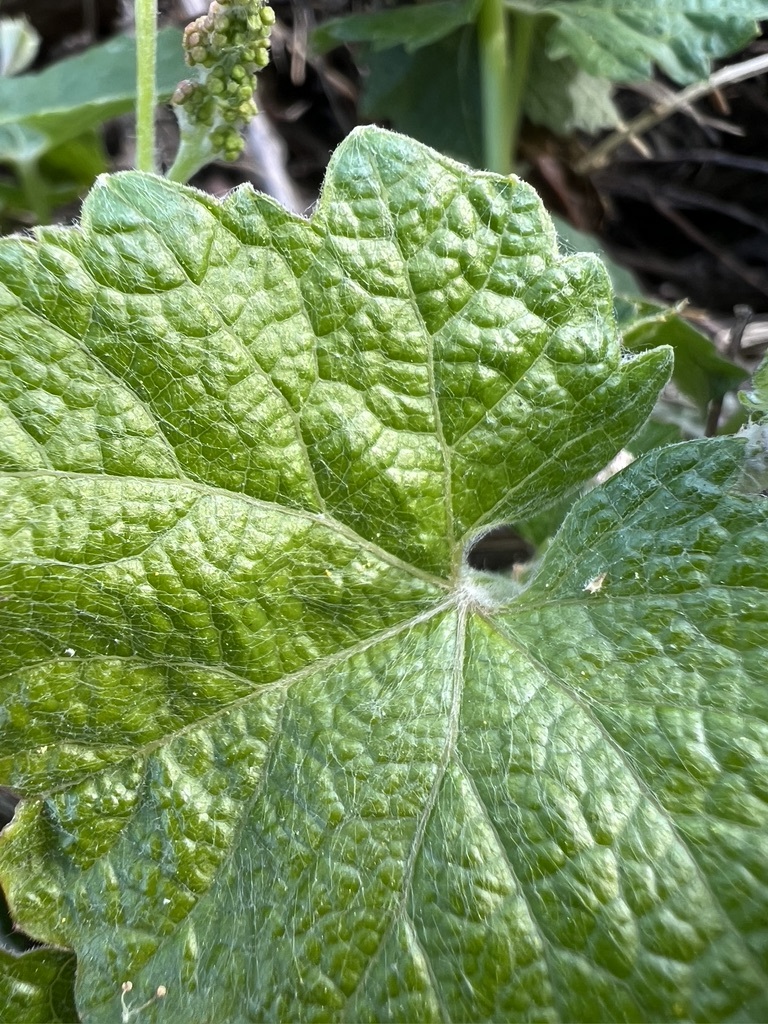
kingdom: Plantae
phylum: Tracheophyta
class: Magnoliopsida
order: Vitales
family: Vitaceae
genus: Vitis
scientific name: Vitis girdiana
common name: Desert wild grape
